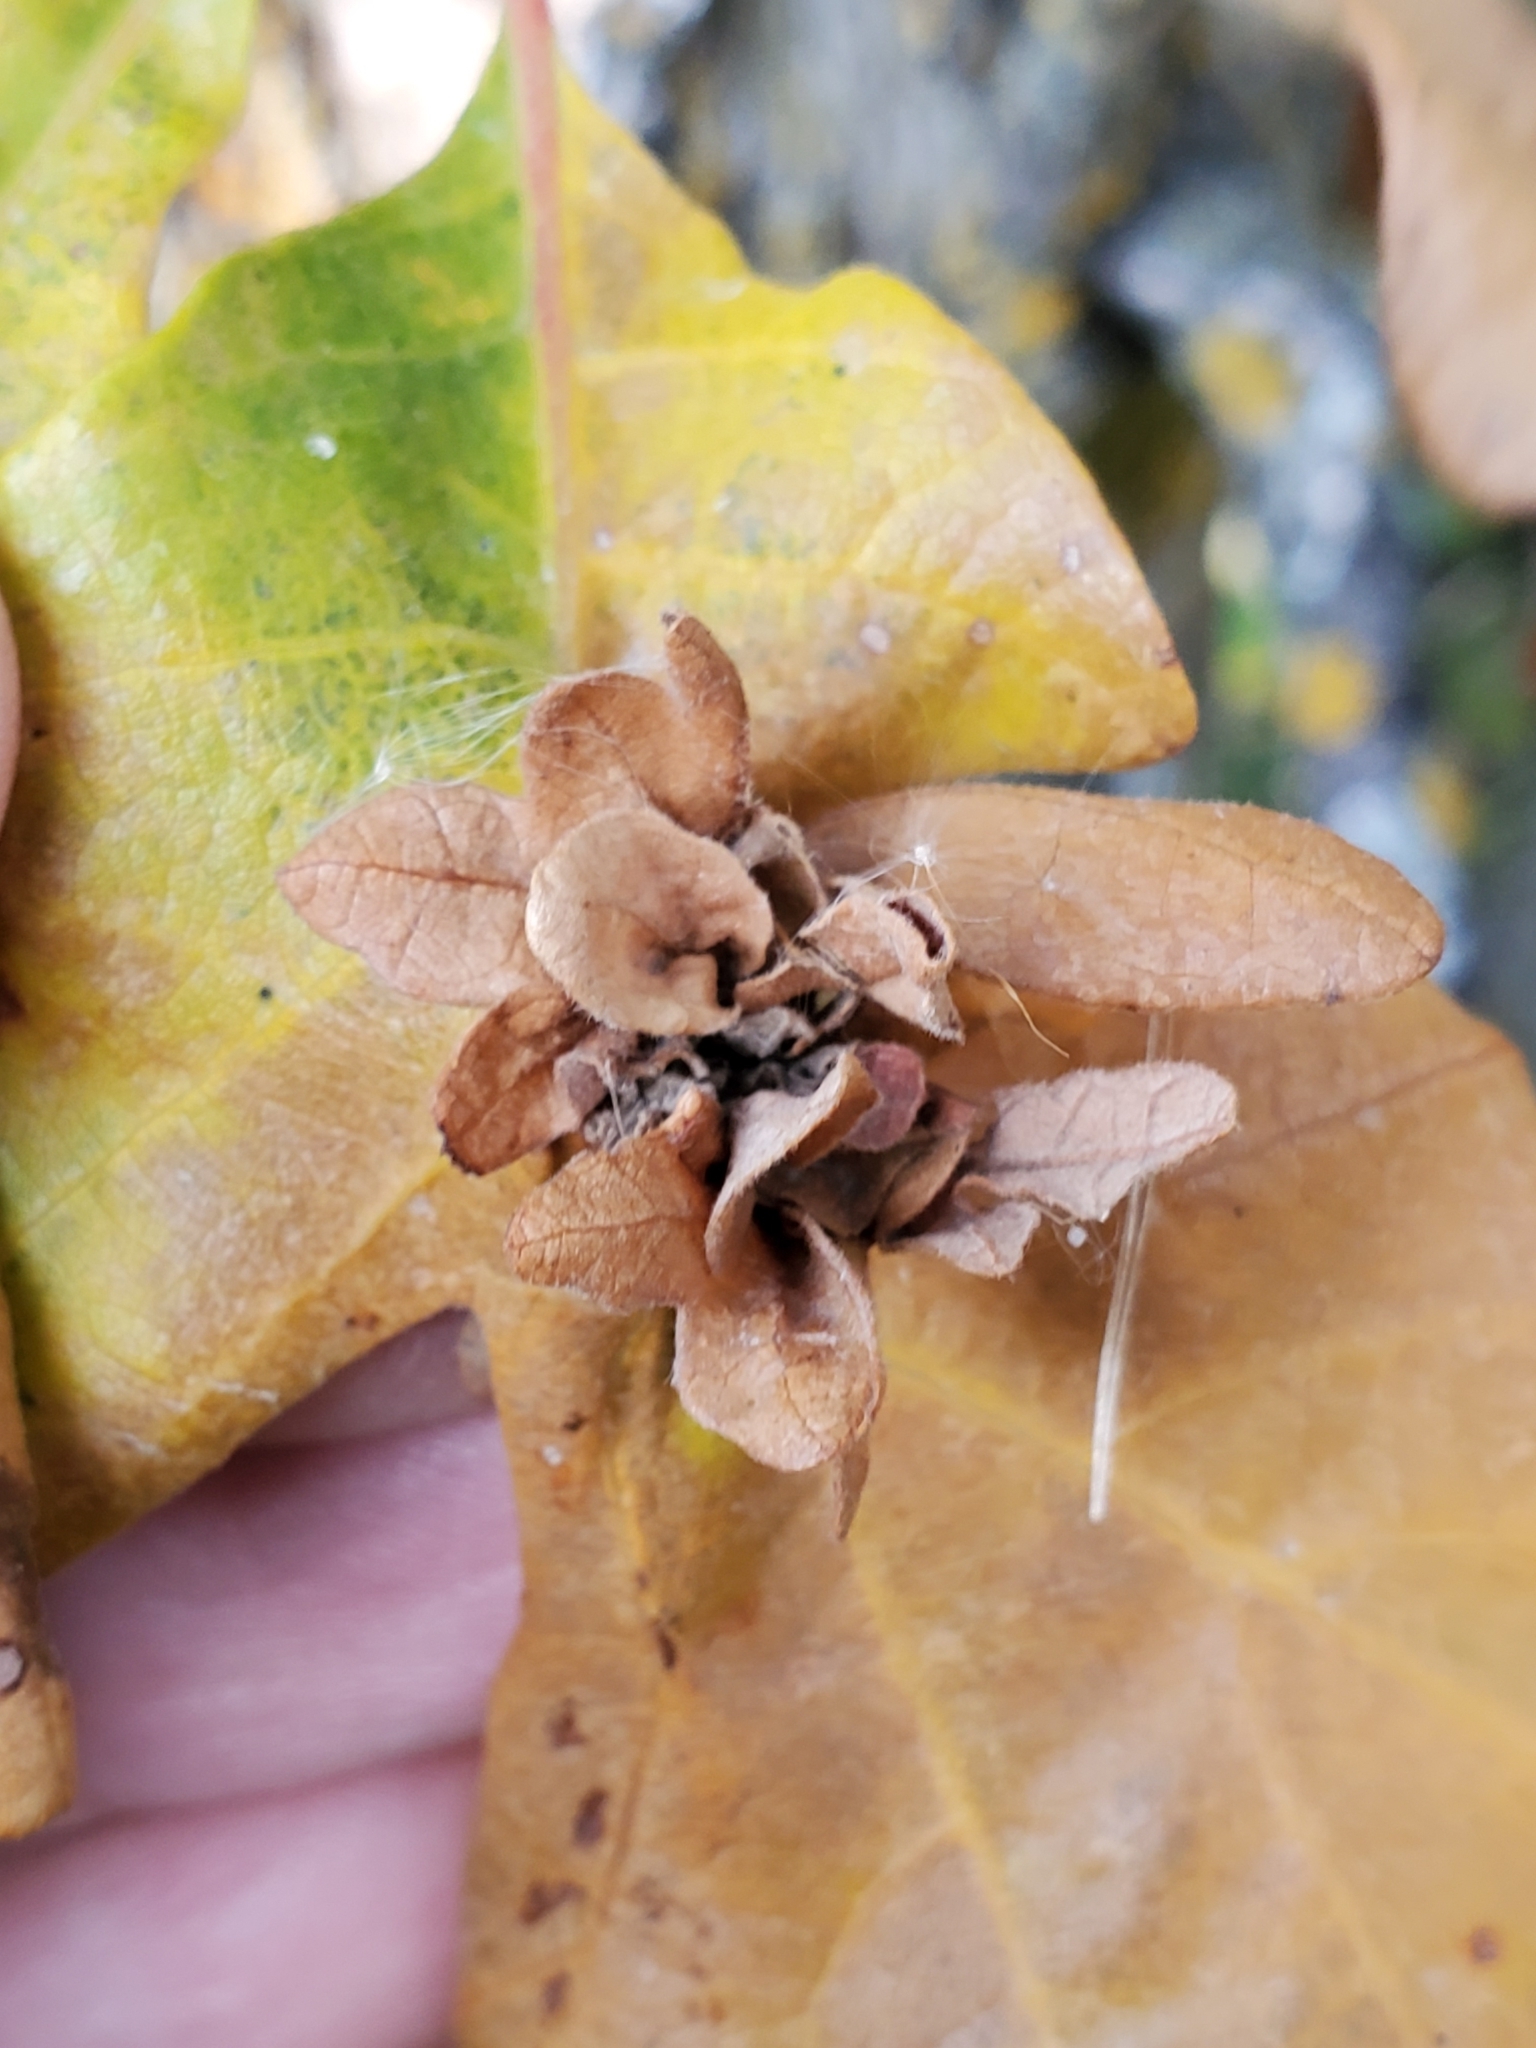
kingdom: Animalia
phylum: Arthropoda
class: Insecta
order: Hymenoptera
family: Cynipidae
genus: Andricus
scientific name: Andricus
